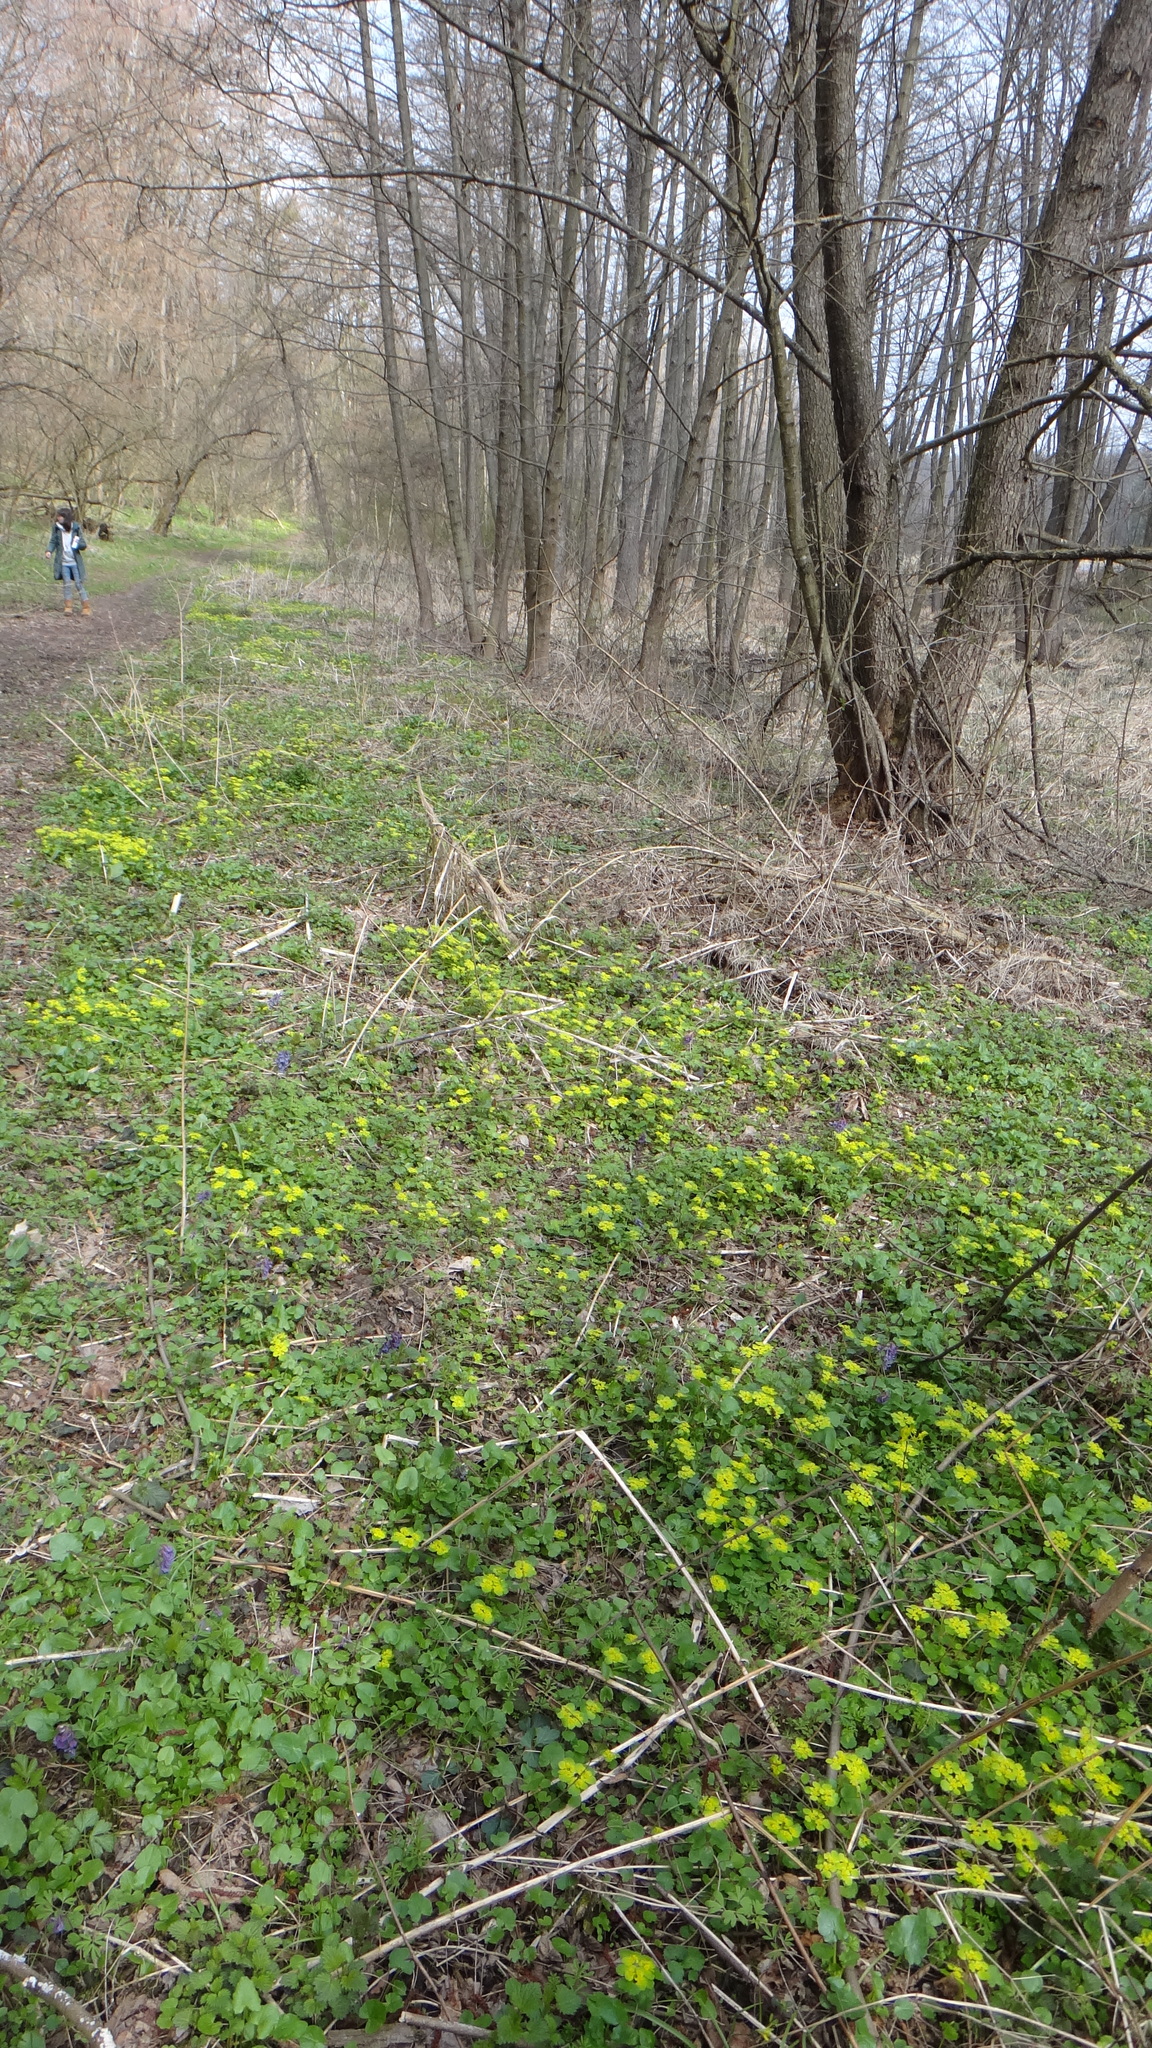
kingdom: Plantae
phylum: Tracheophyta
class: Magnoliopsida
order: Saxifragales
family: Saxifragaceae
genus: Chrysosplenium
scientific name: Chrysosplenium alternifolium
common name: Alternate-leaved golden-saxifrage
